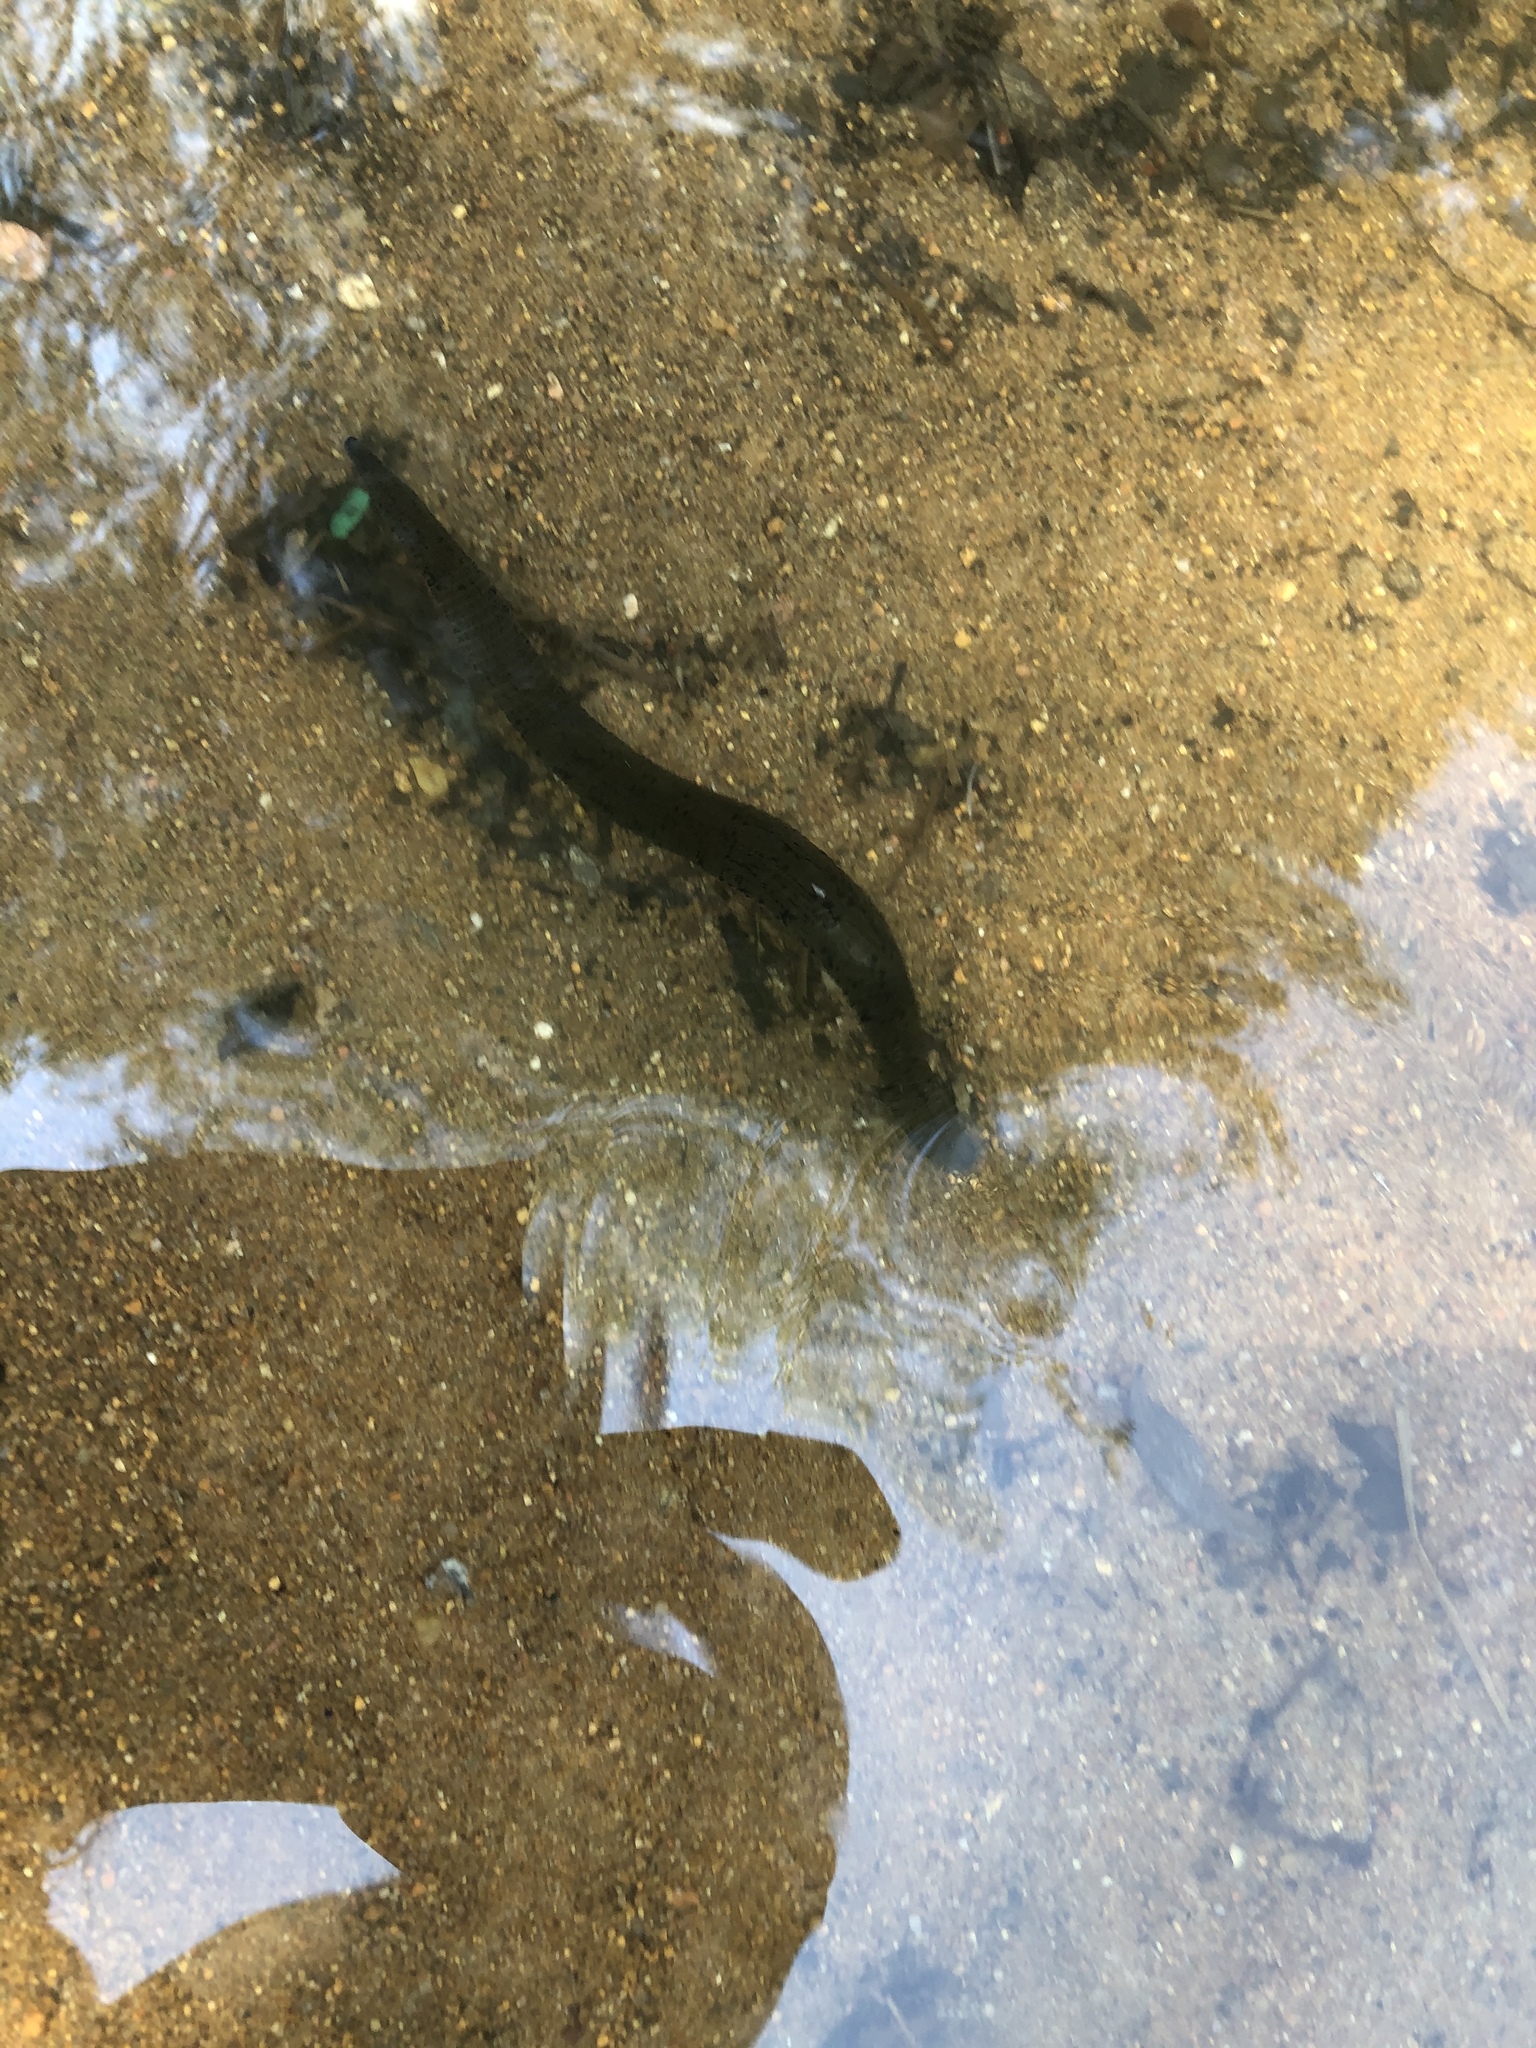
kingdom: Animalia
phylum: Annelida
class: Clitellata
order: Arhynchobdellida
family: Erpobdellidae
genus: Erpobdella
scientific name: Erpobdella octoculata
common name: Leeches
